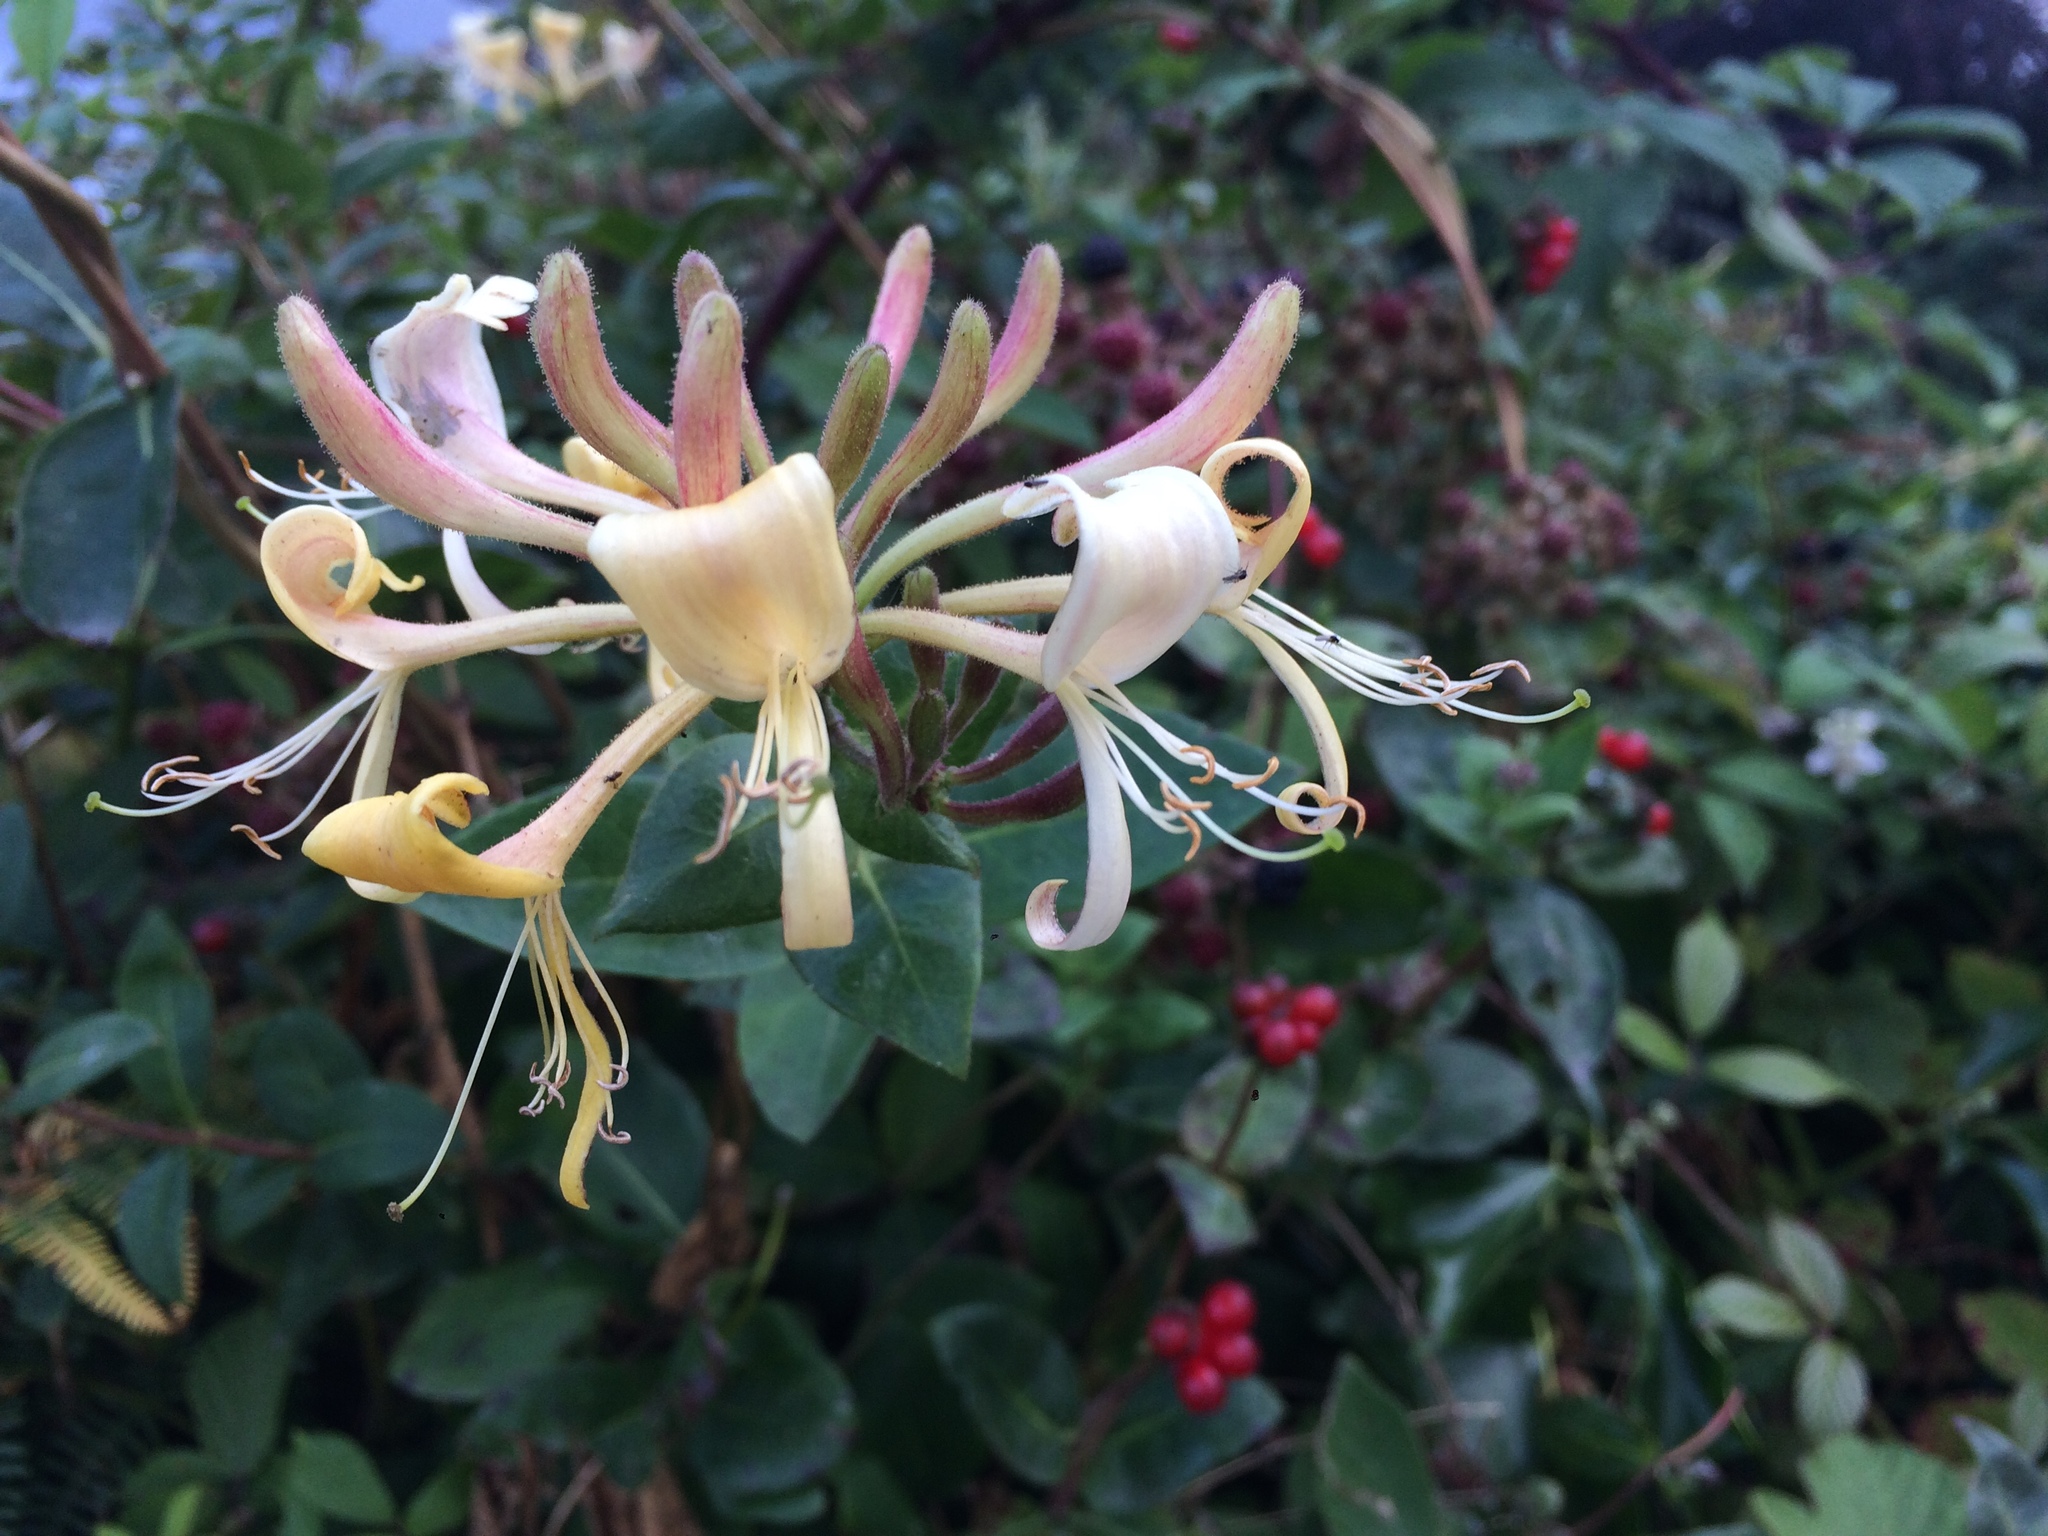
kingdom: Plantae
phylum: Tracheophyta
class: Magnoliopsida
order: Dipsacales
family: Caprifoliaceae
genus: Lonicera
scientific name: Lonicera periclymenum
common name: European honeysuckle
